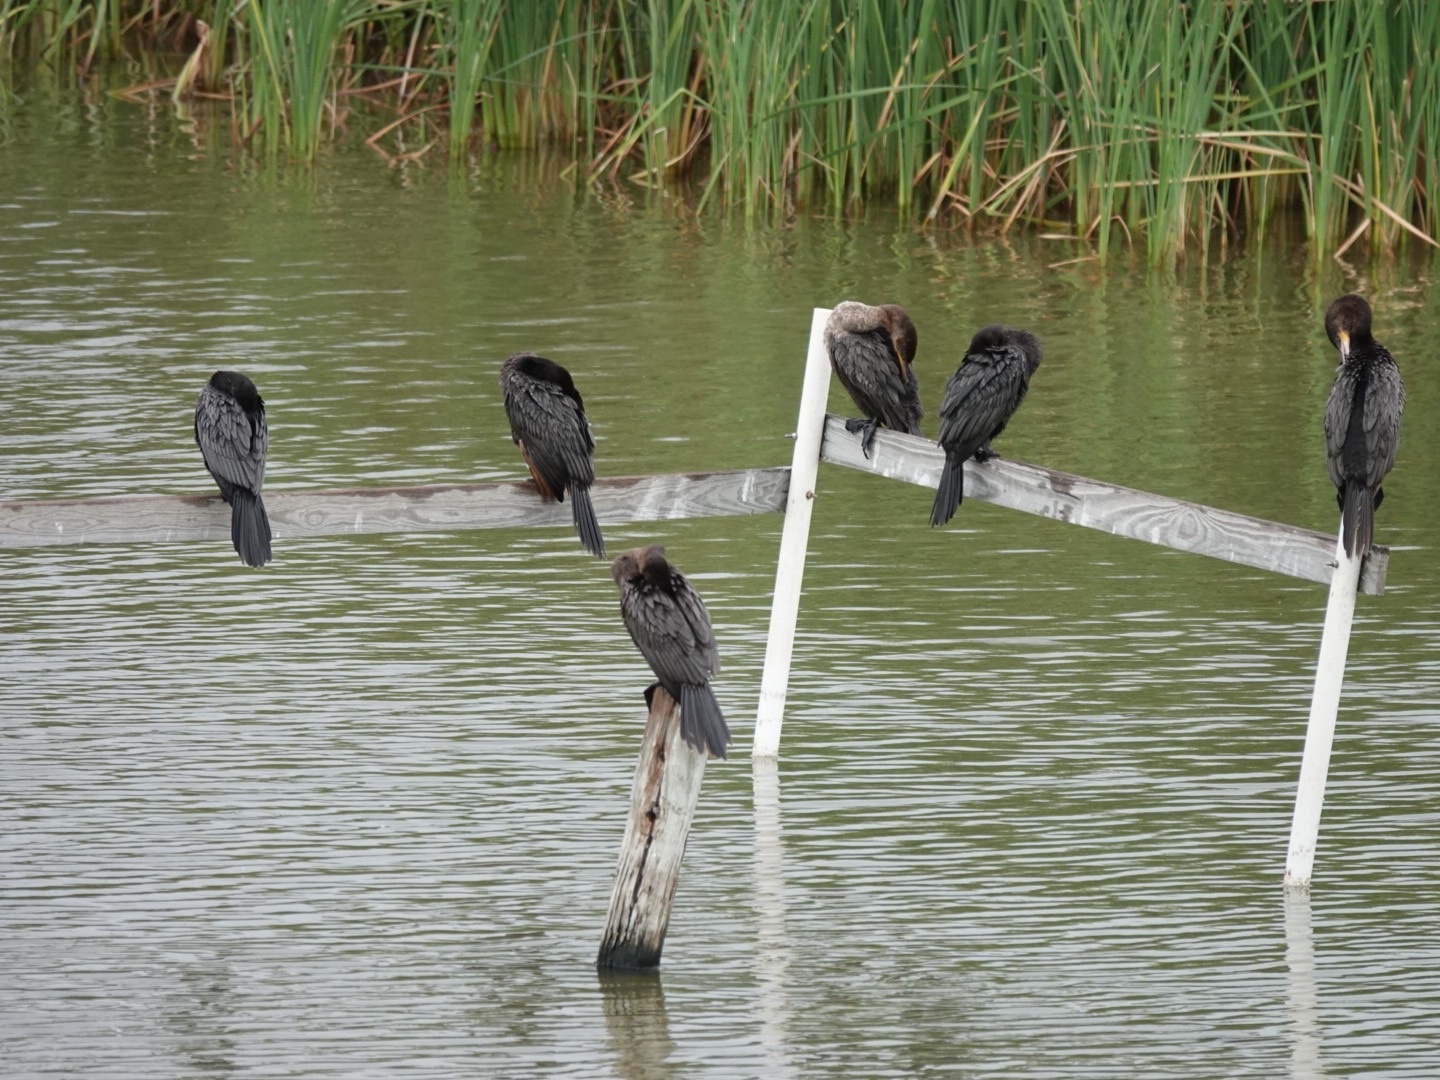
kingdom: Animalia
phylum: Chordata
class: Aves
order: Suliformes
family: Phalacrocoracidae
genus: Phalacrocorax
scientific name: Phalacrocorax brasilianus
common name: Neotropic cormorant
